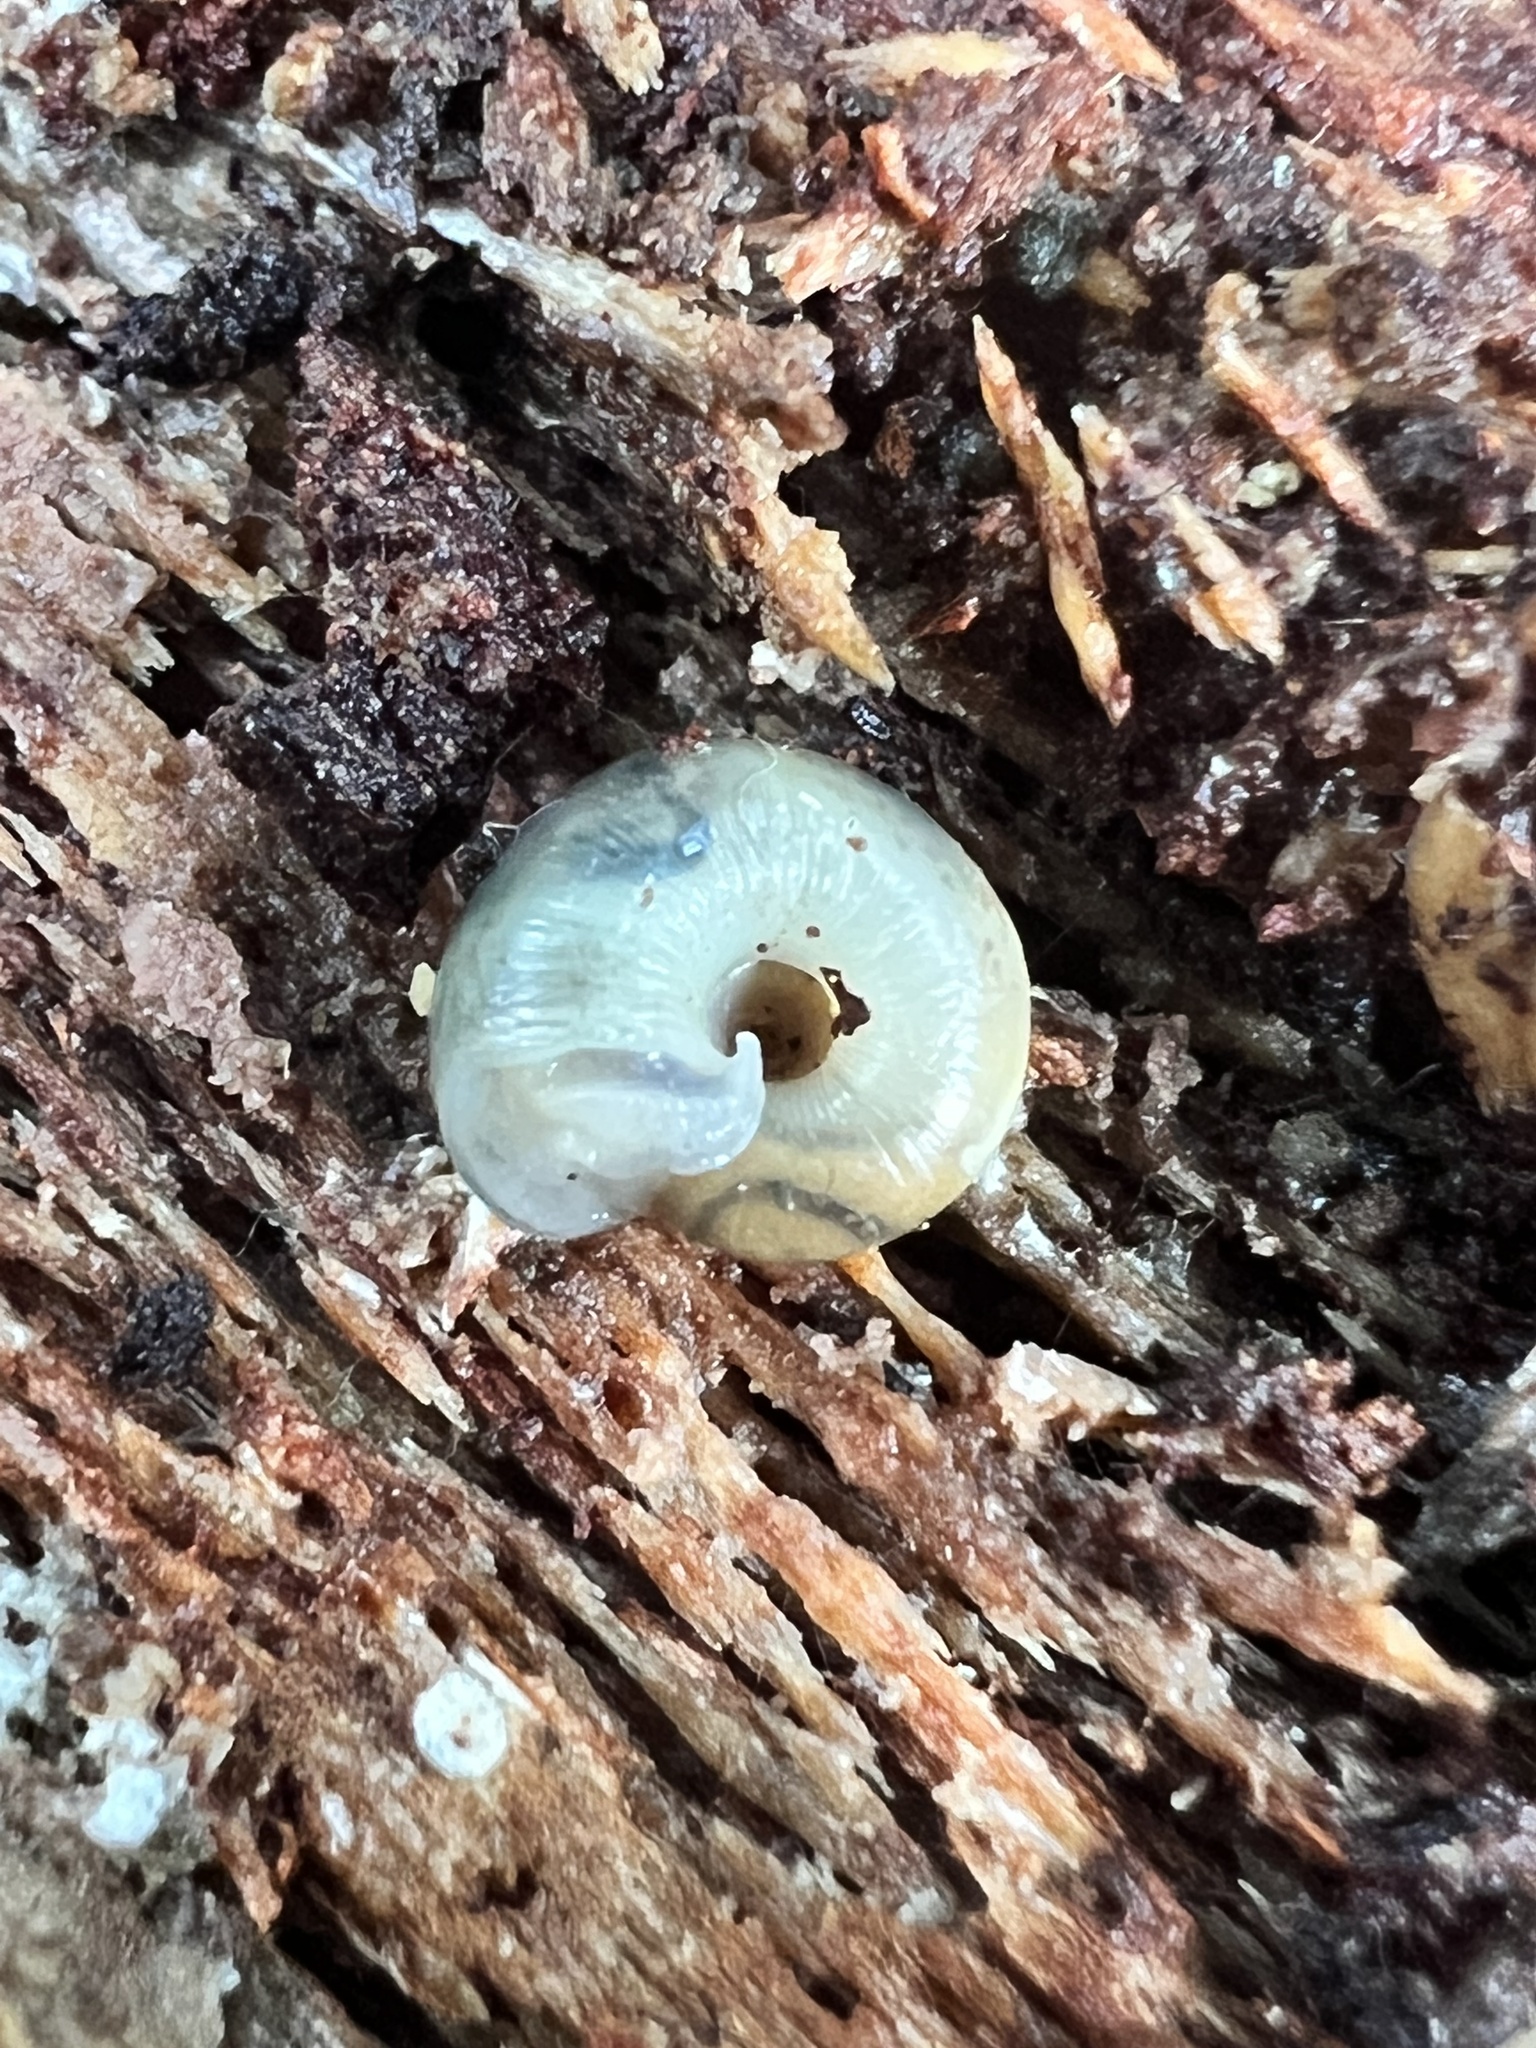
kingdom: Animalia
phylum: Mollusca
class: Gastropoda
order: Stylommatophora
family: Haplotrematidae
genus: Haplotrema
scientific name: Haplotrema vancouverense
